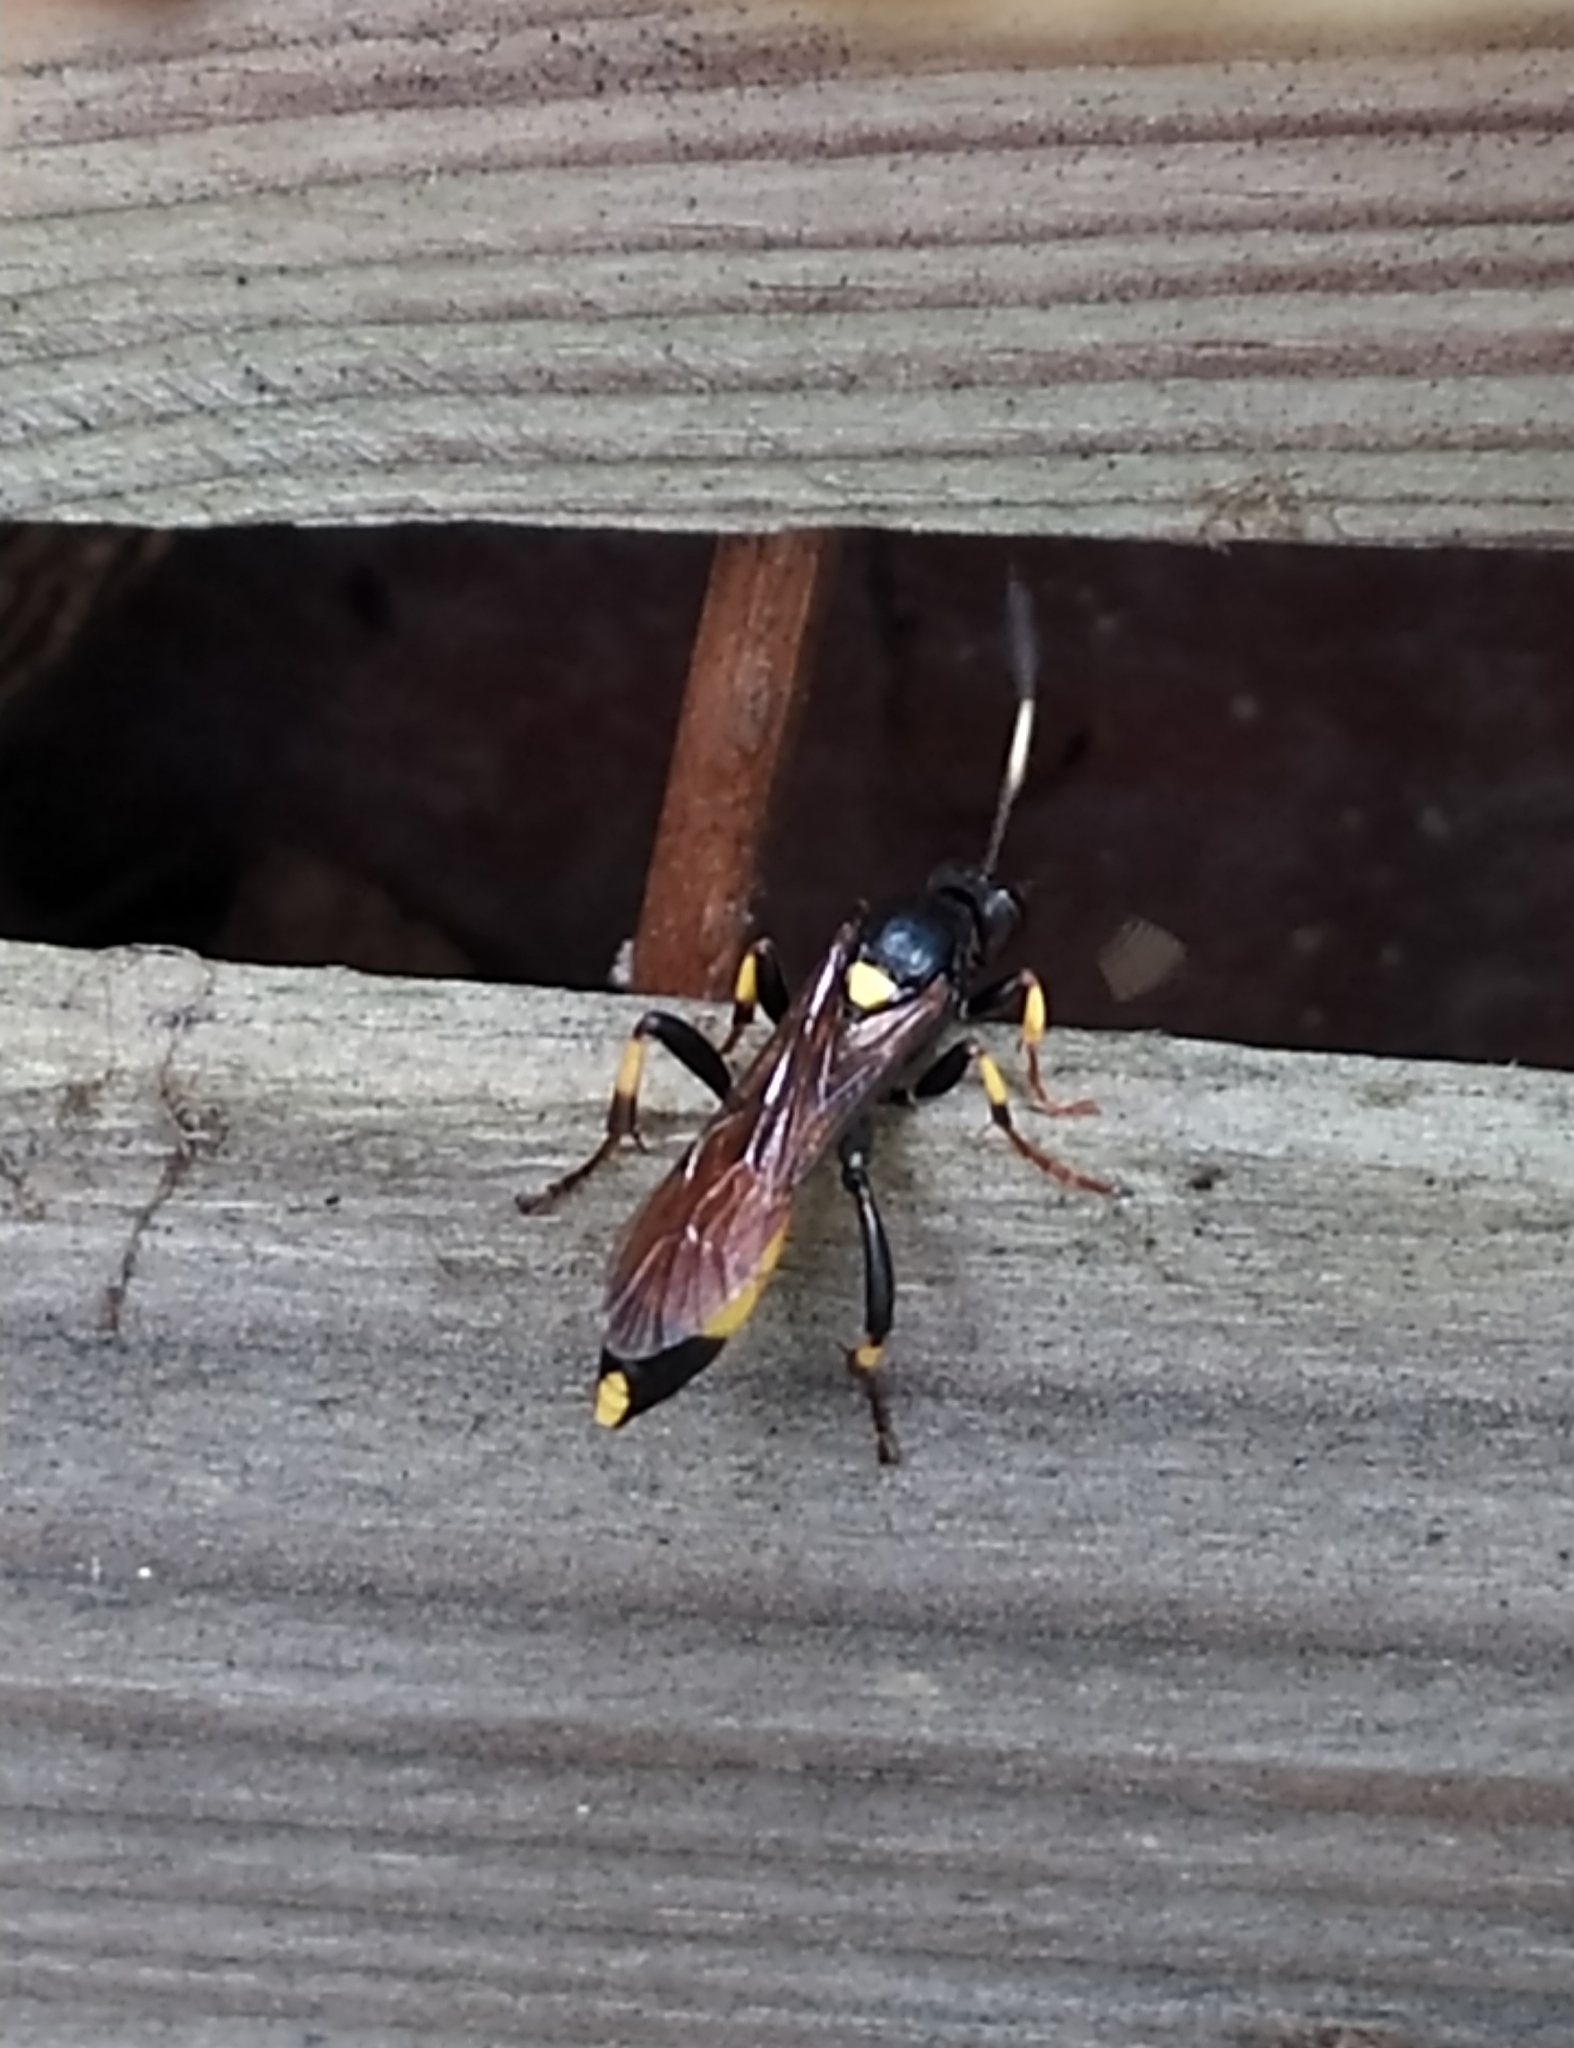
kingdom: Animalia
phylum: Arthropoda
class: Insecta
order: Hymenoptera
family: Ichneumonidae
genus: Ichneumon
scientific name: Ichneumon stramentor
